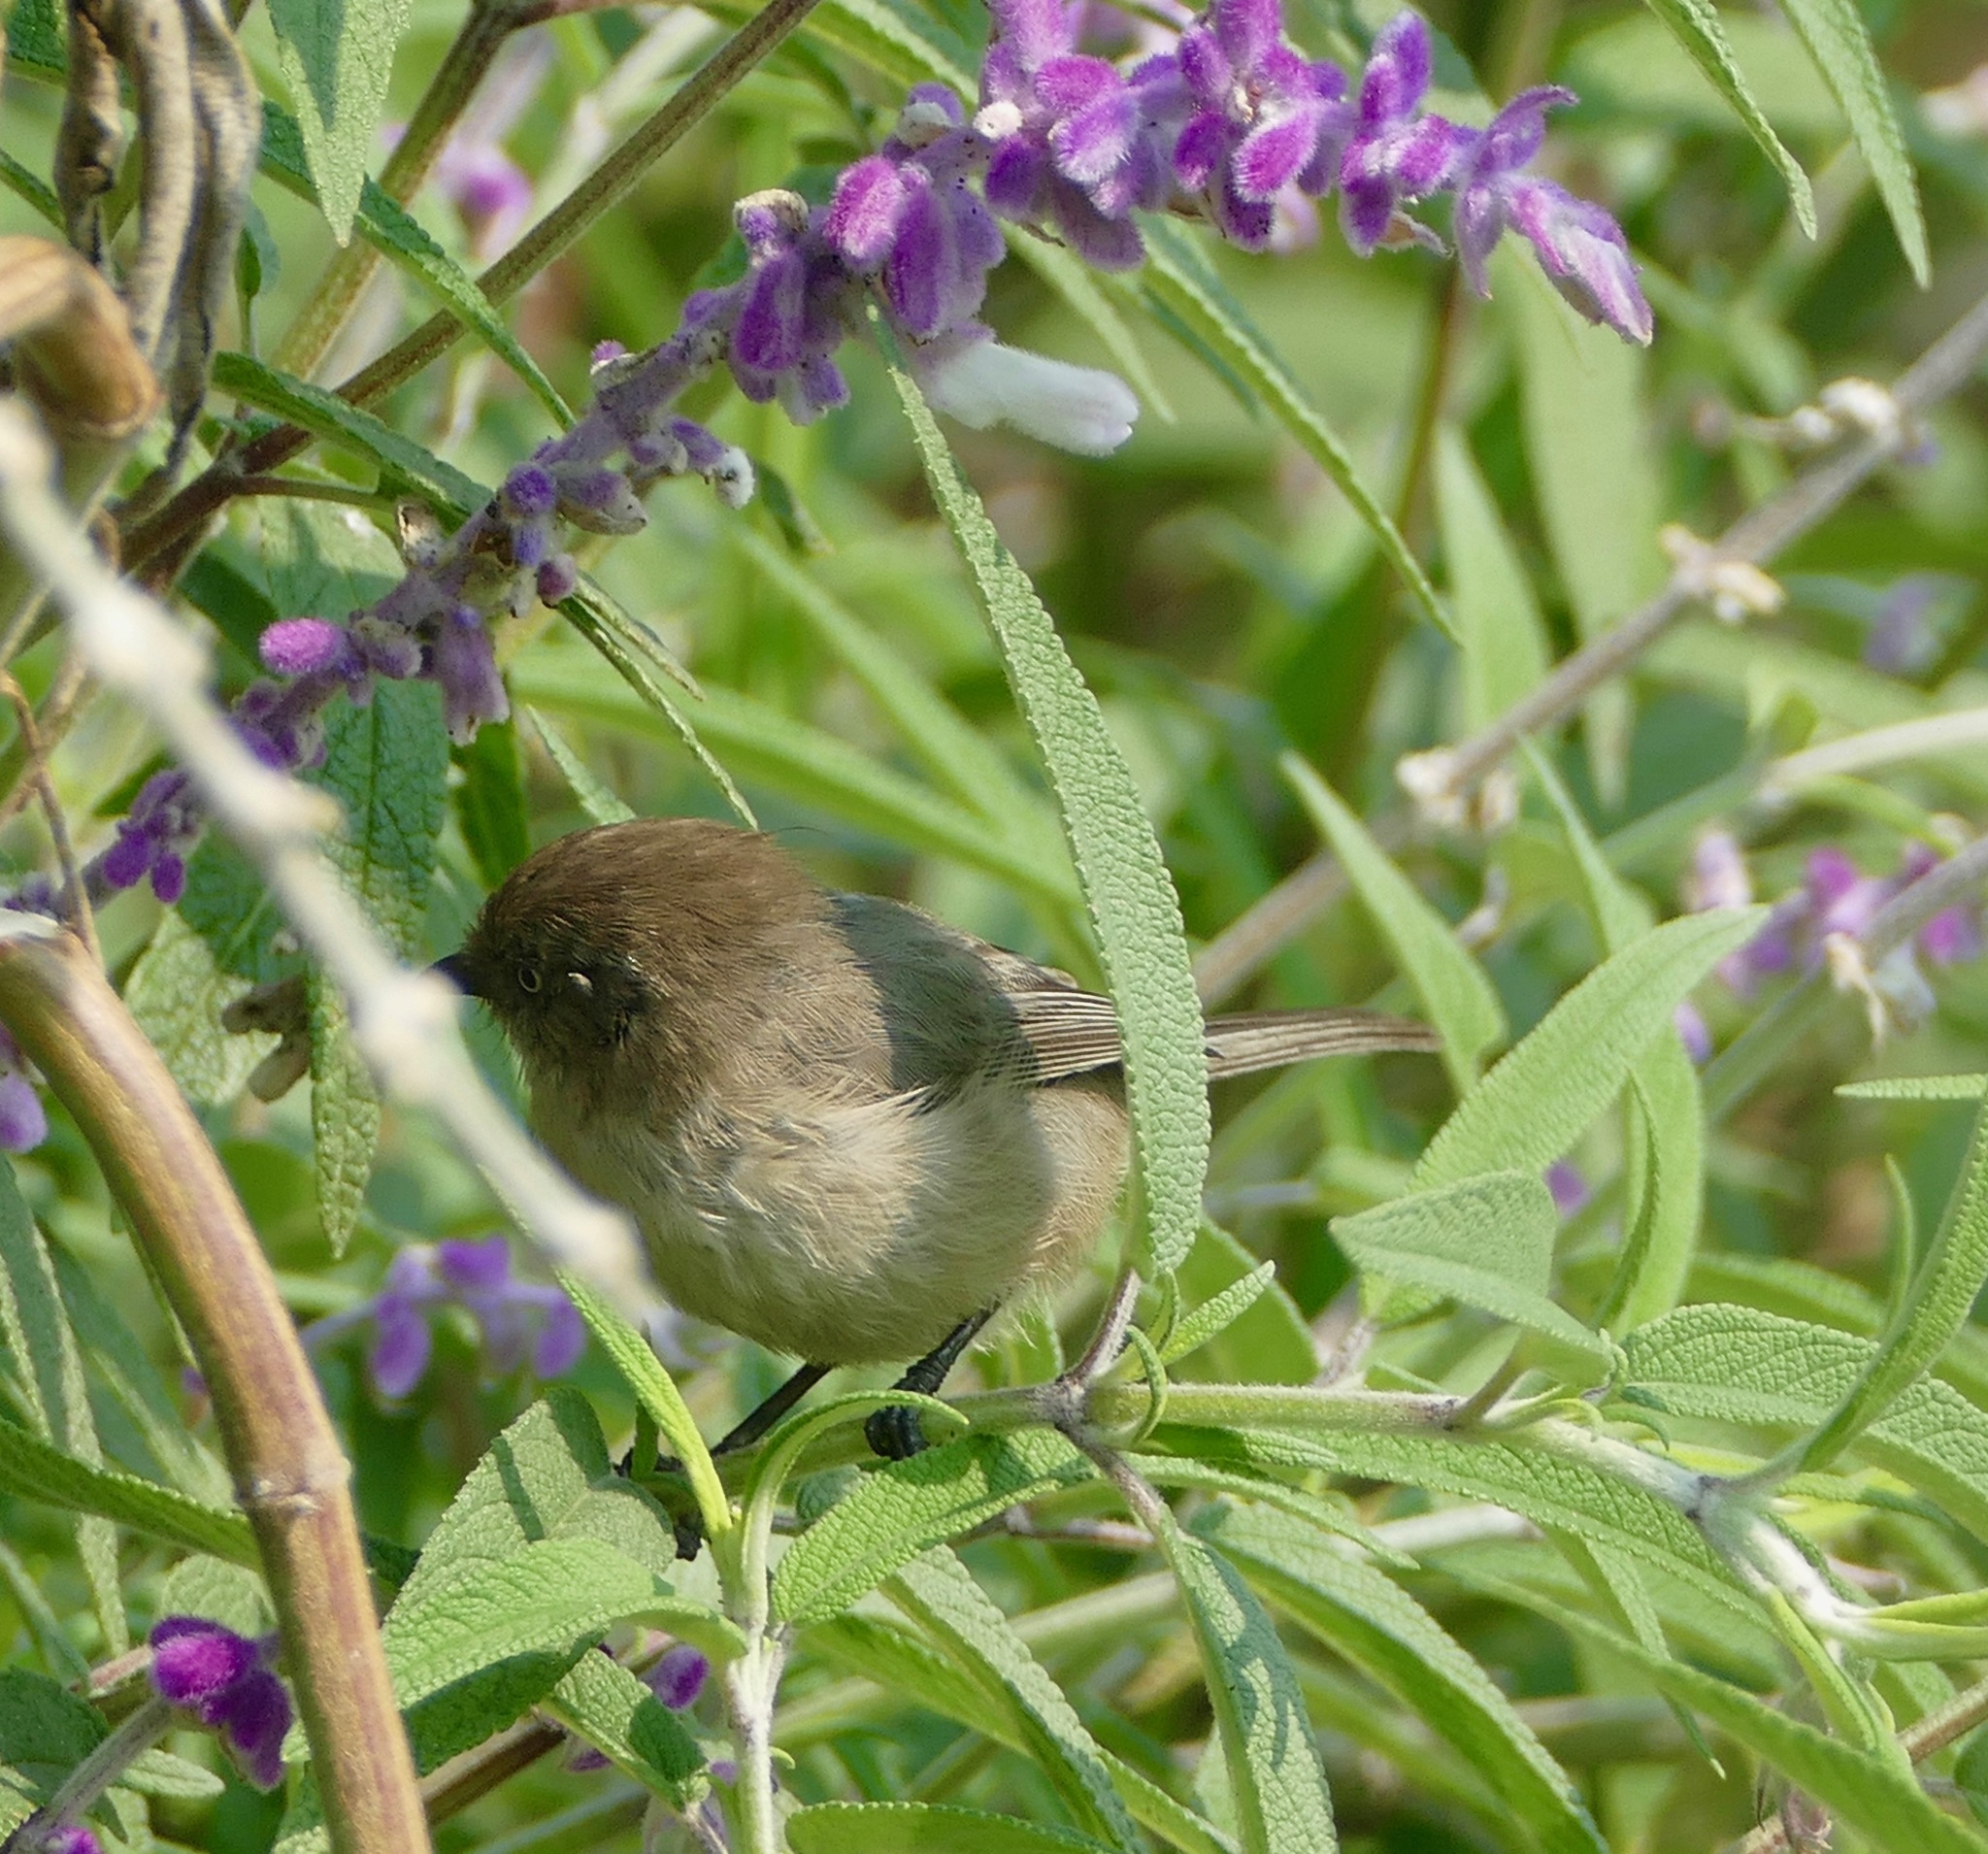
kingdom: Animalia
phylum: Chordata
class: Aves
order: Passeriformes
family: Aegithalidae
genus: Psaltriparus
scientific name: Psaltriparus minimus
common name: American bushtit
